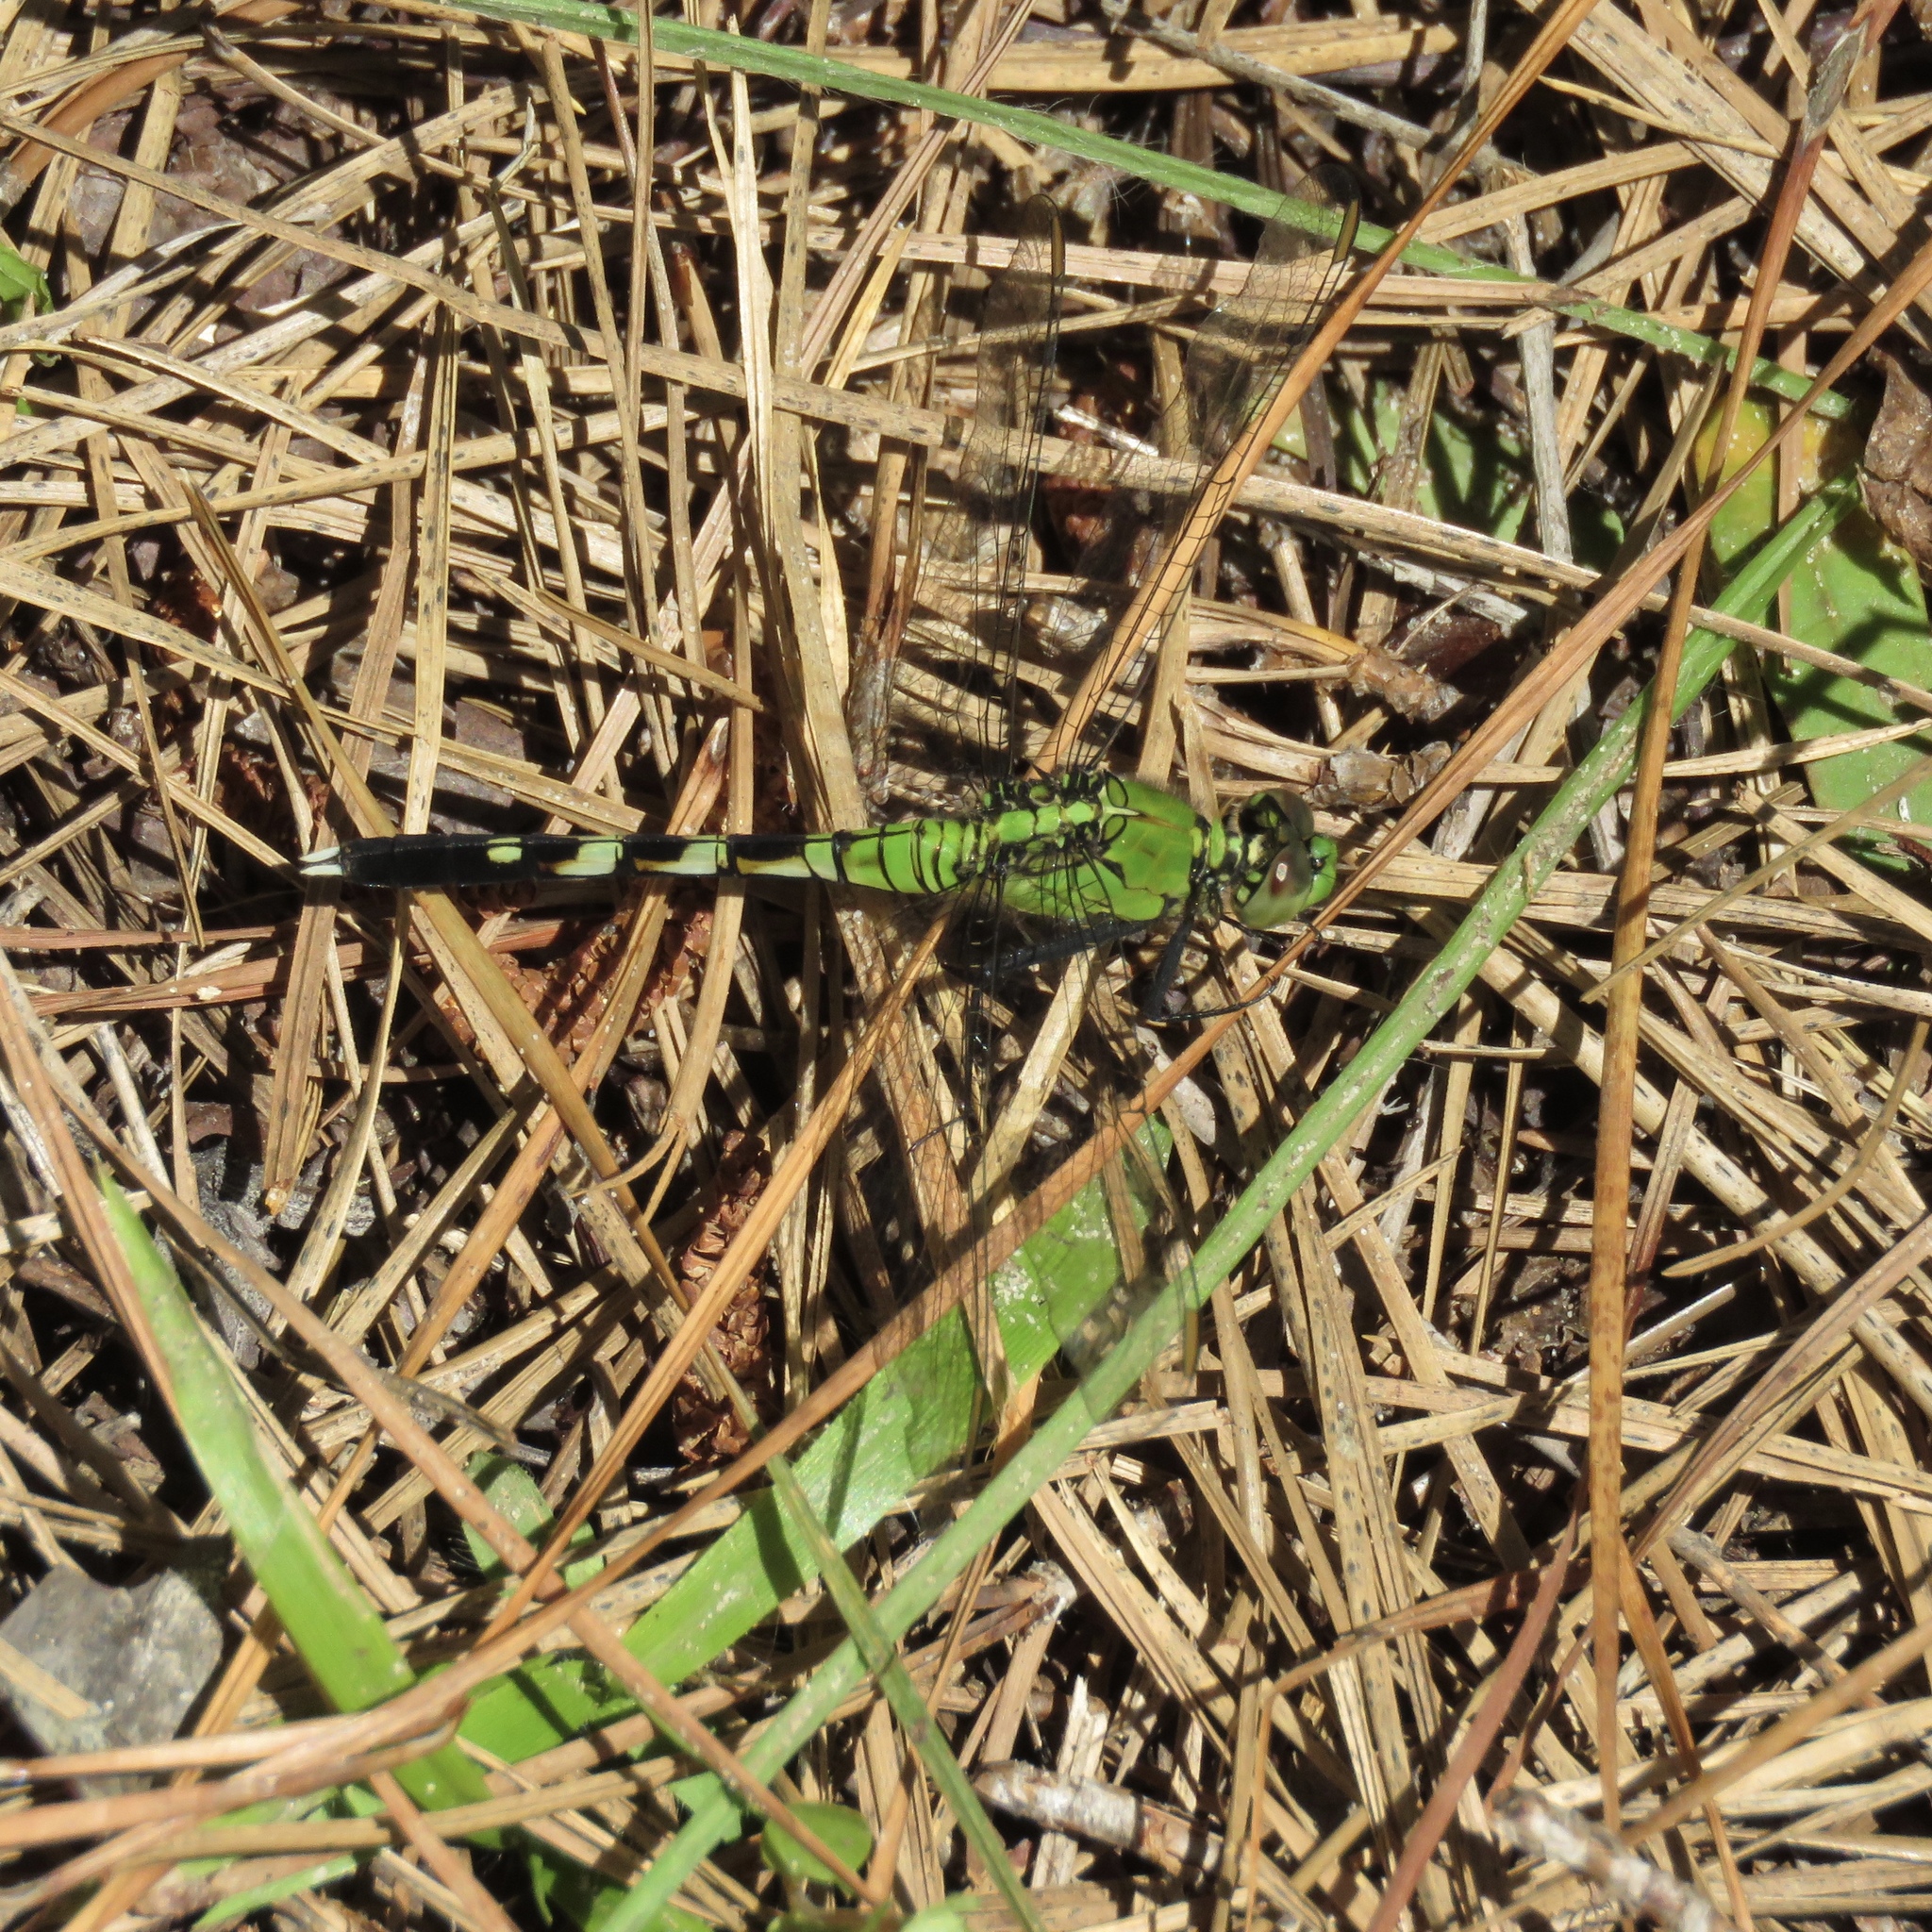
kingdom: Animalia
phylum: Arthropoda
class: Insecta
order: Odonata
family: Libellulidae
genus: Erythemis
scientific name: Erythemis simplicicollis
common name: Eastern pondhawk
